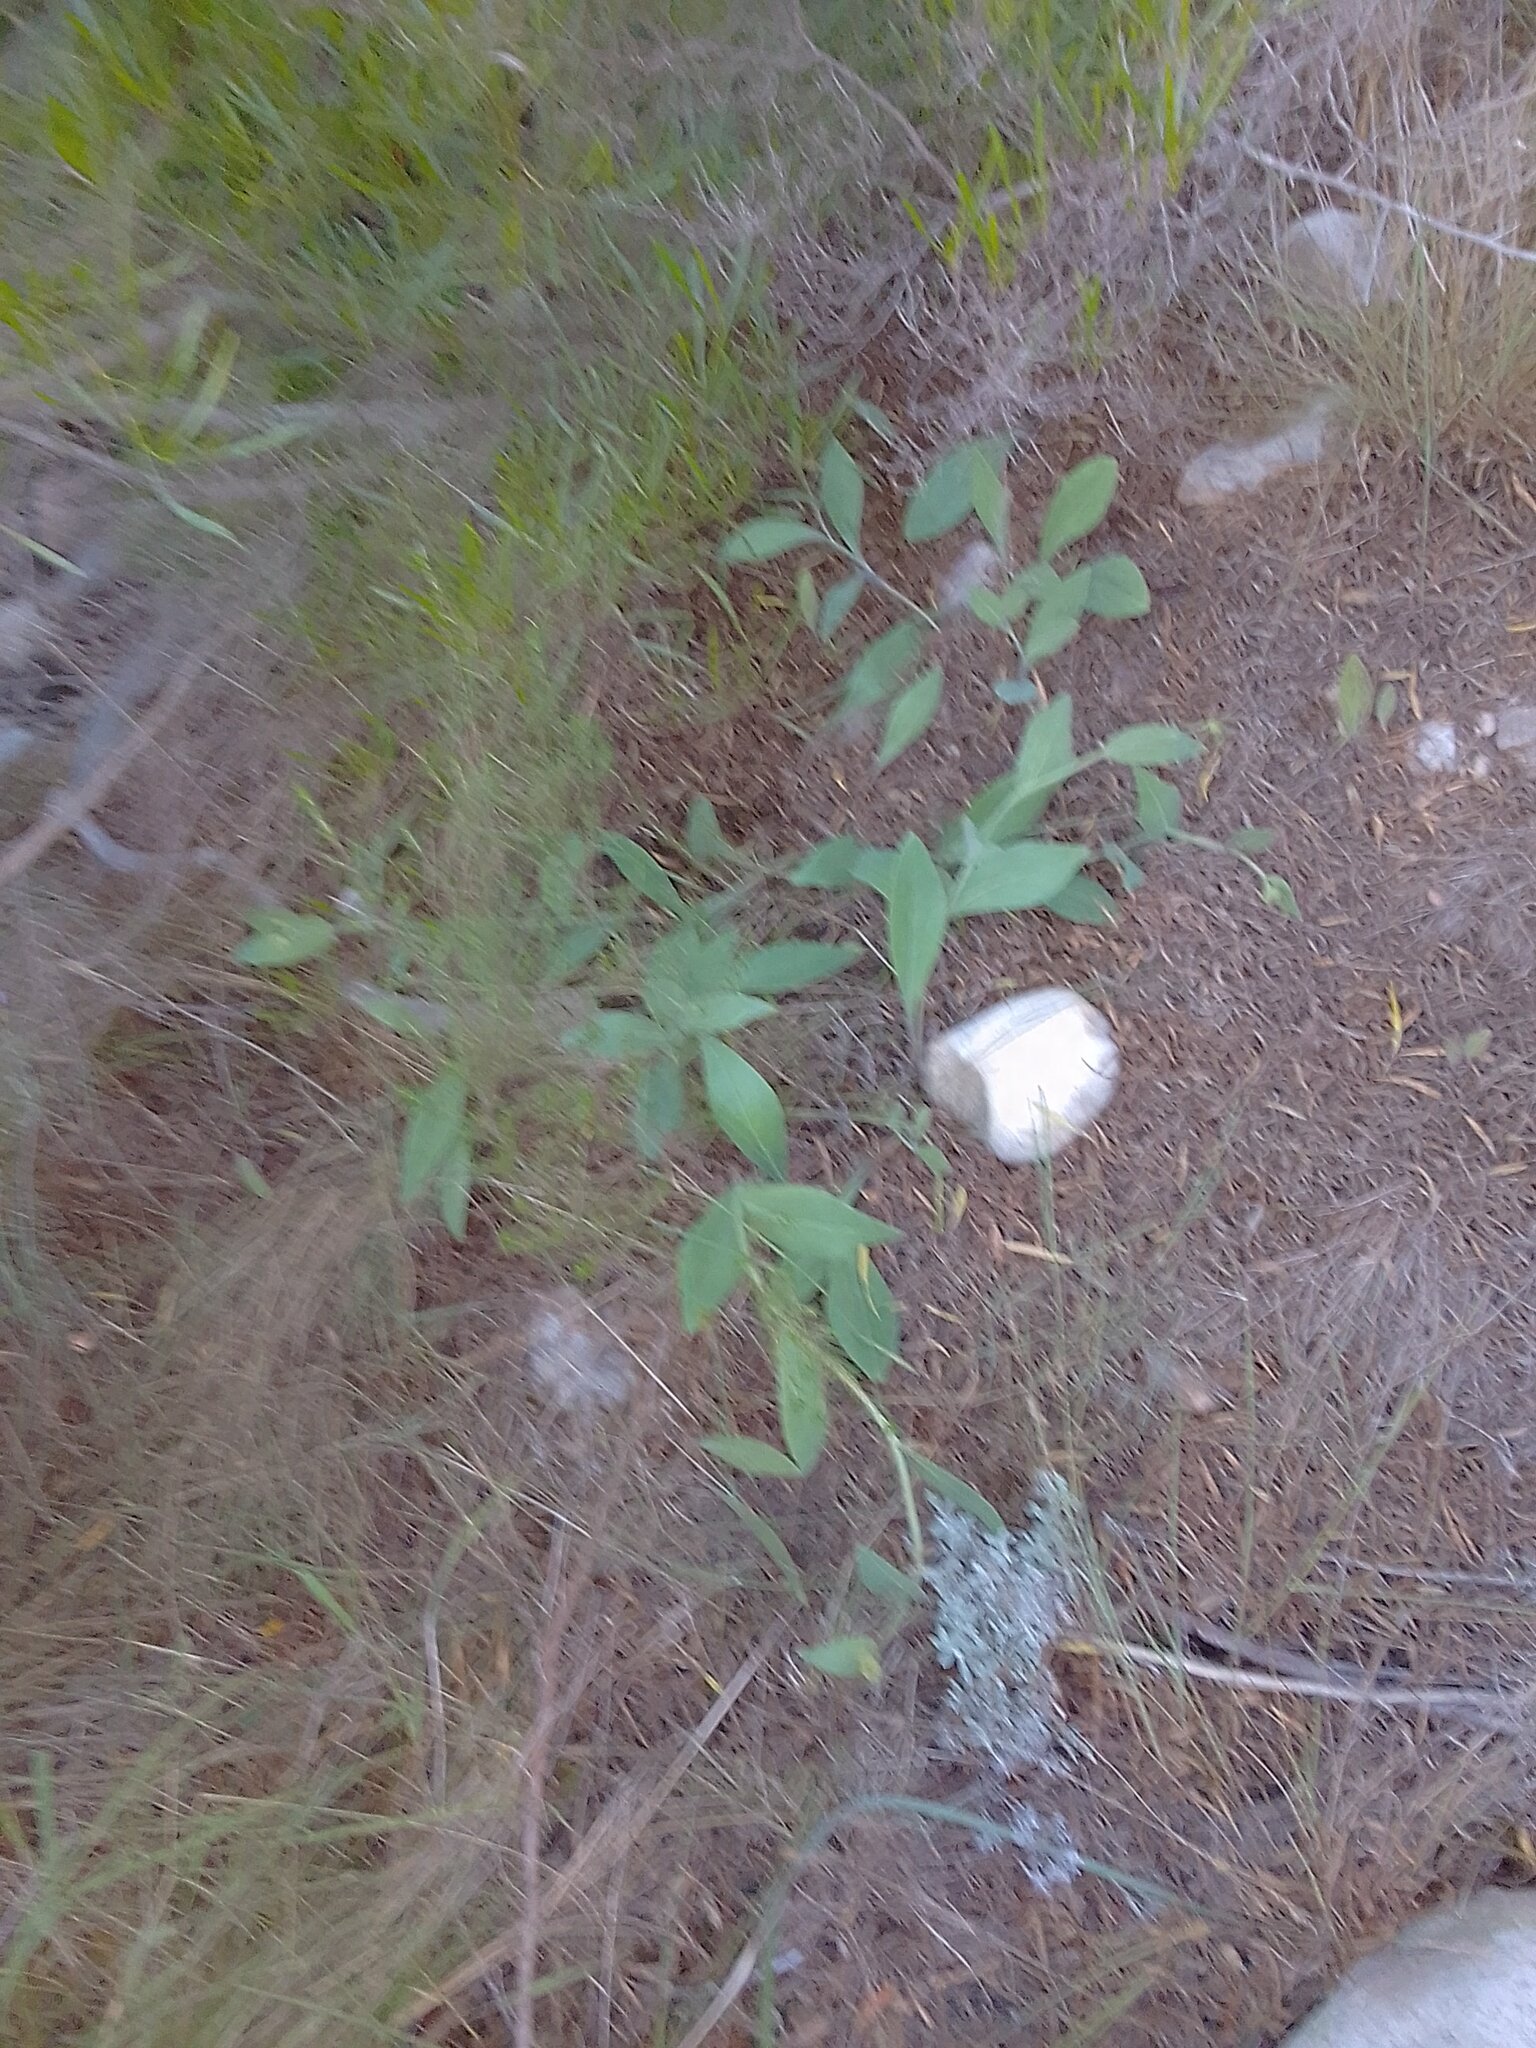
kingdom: Plantae
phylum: Tracheophyta
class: Magnoliopsida
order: Asterales
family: Asteraceae
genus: Othonna
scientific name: Othonna gymnodiscus
